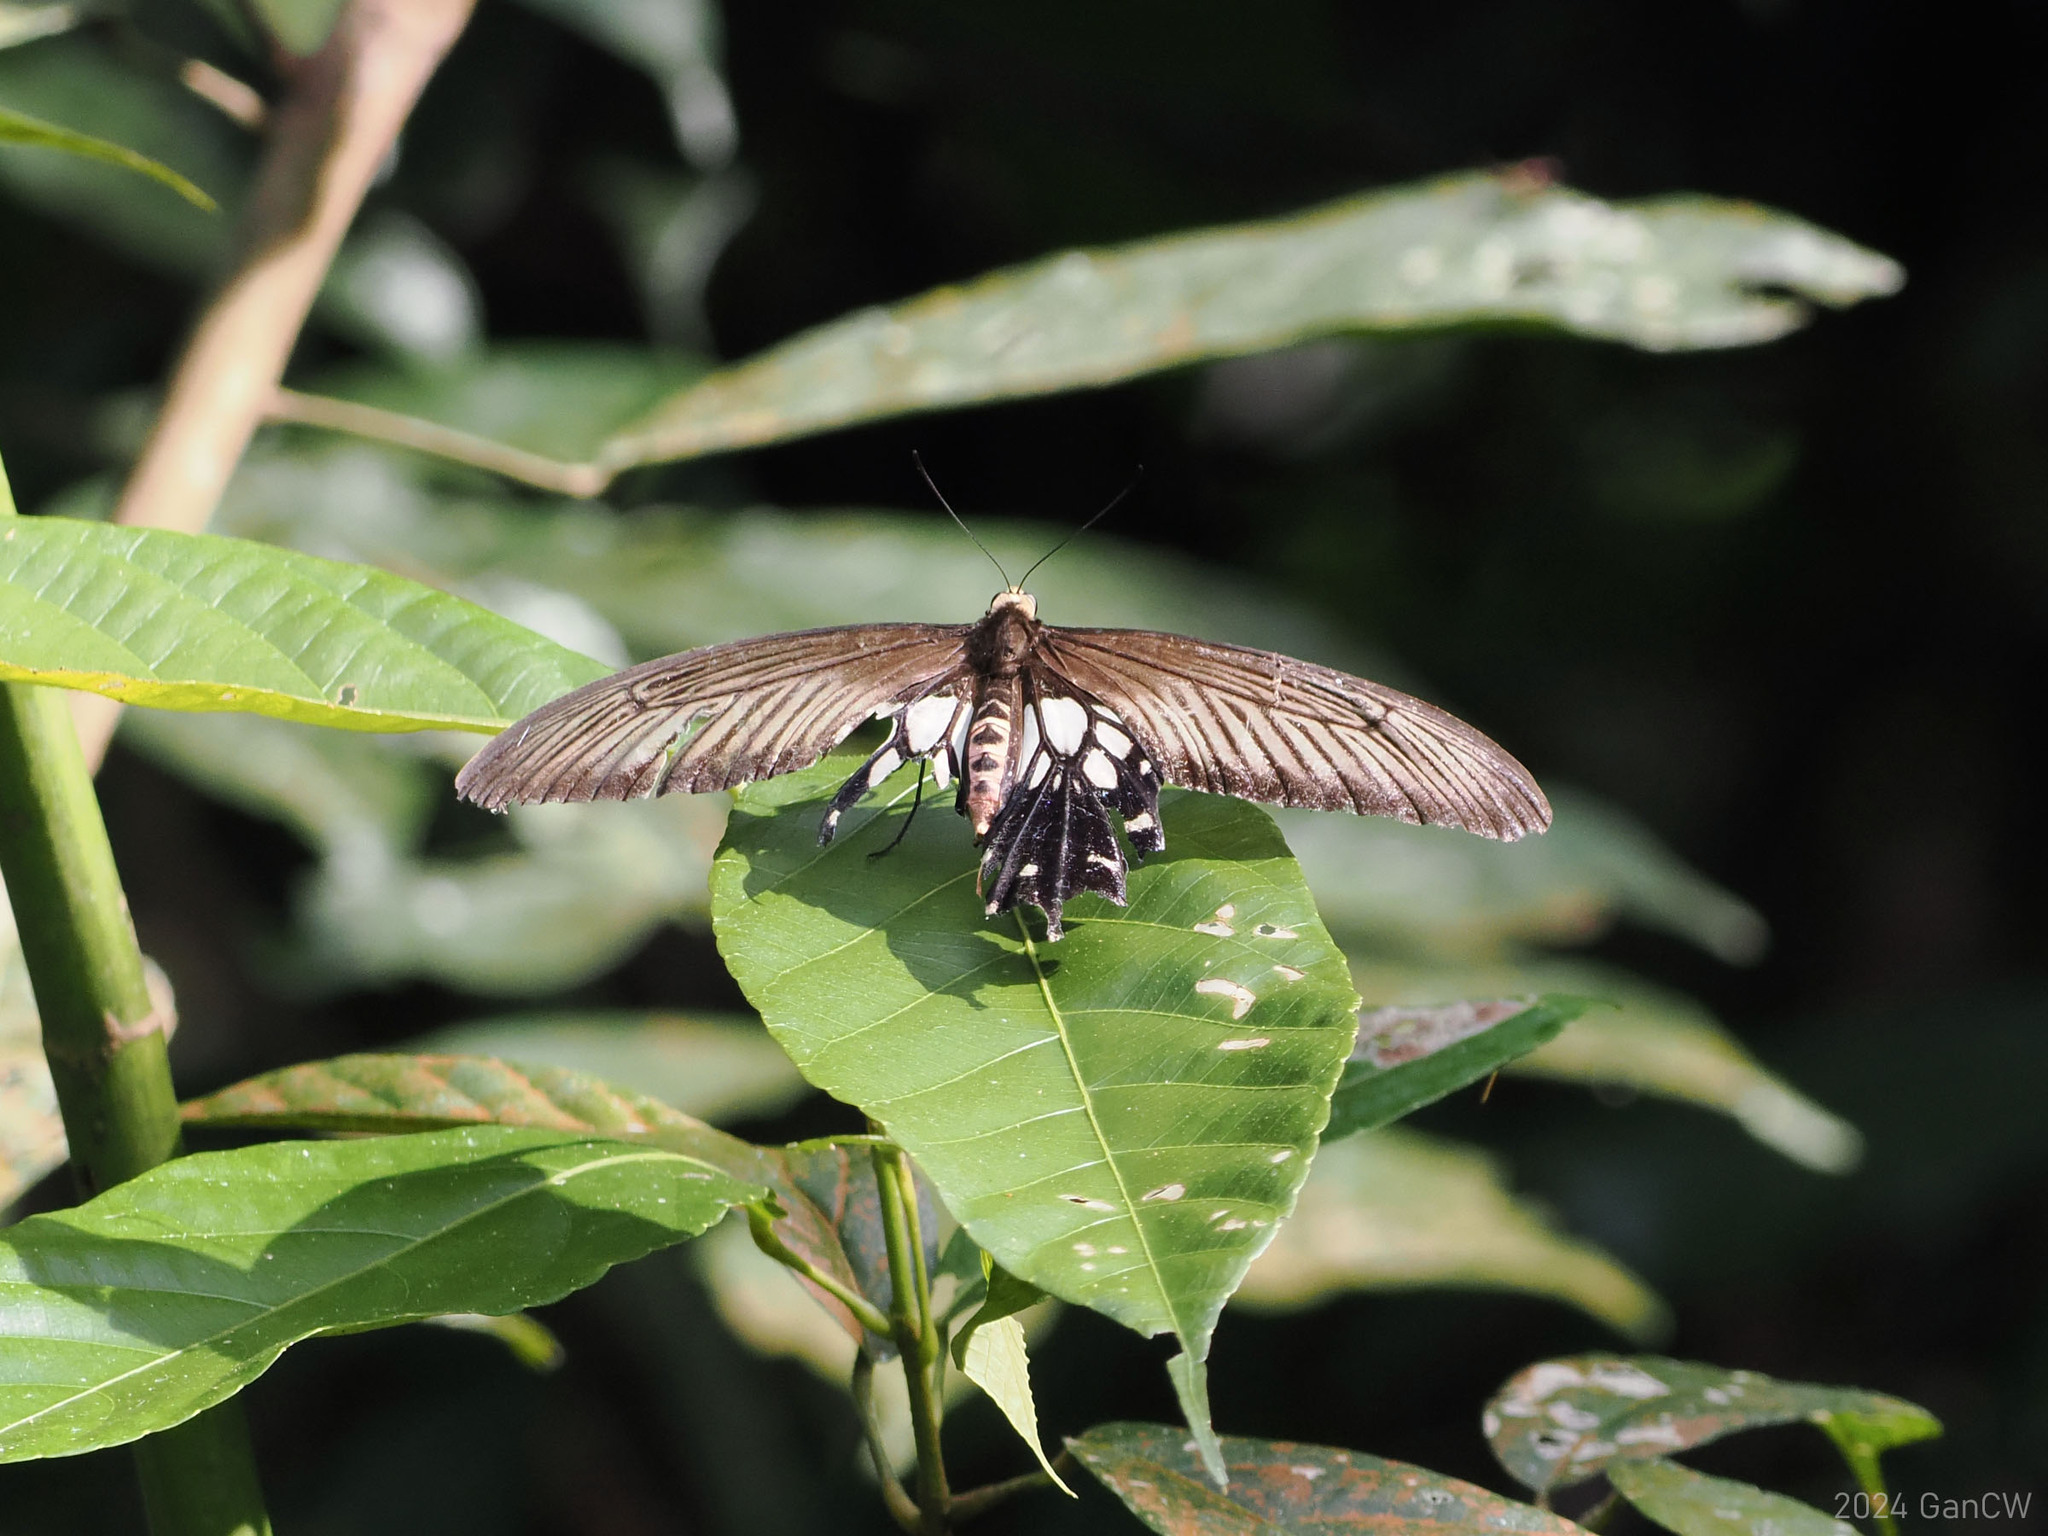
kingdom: Animalia
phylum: Arthropoda
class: Insecta
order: Lepidoptera
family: Papilionidae
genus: Losaria
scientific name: Losaria
